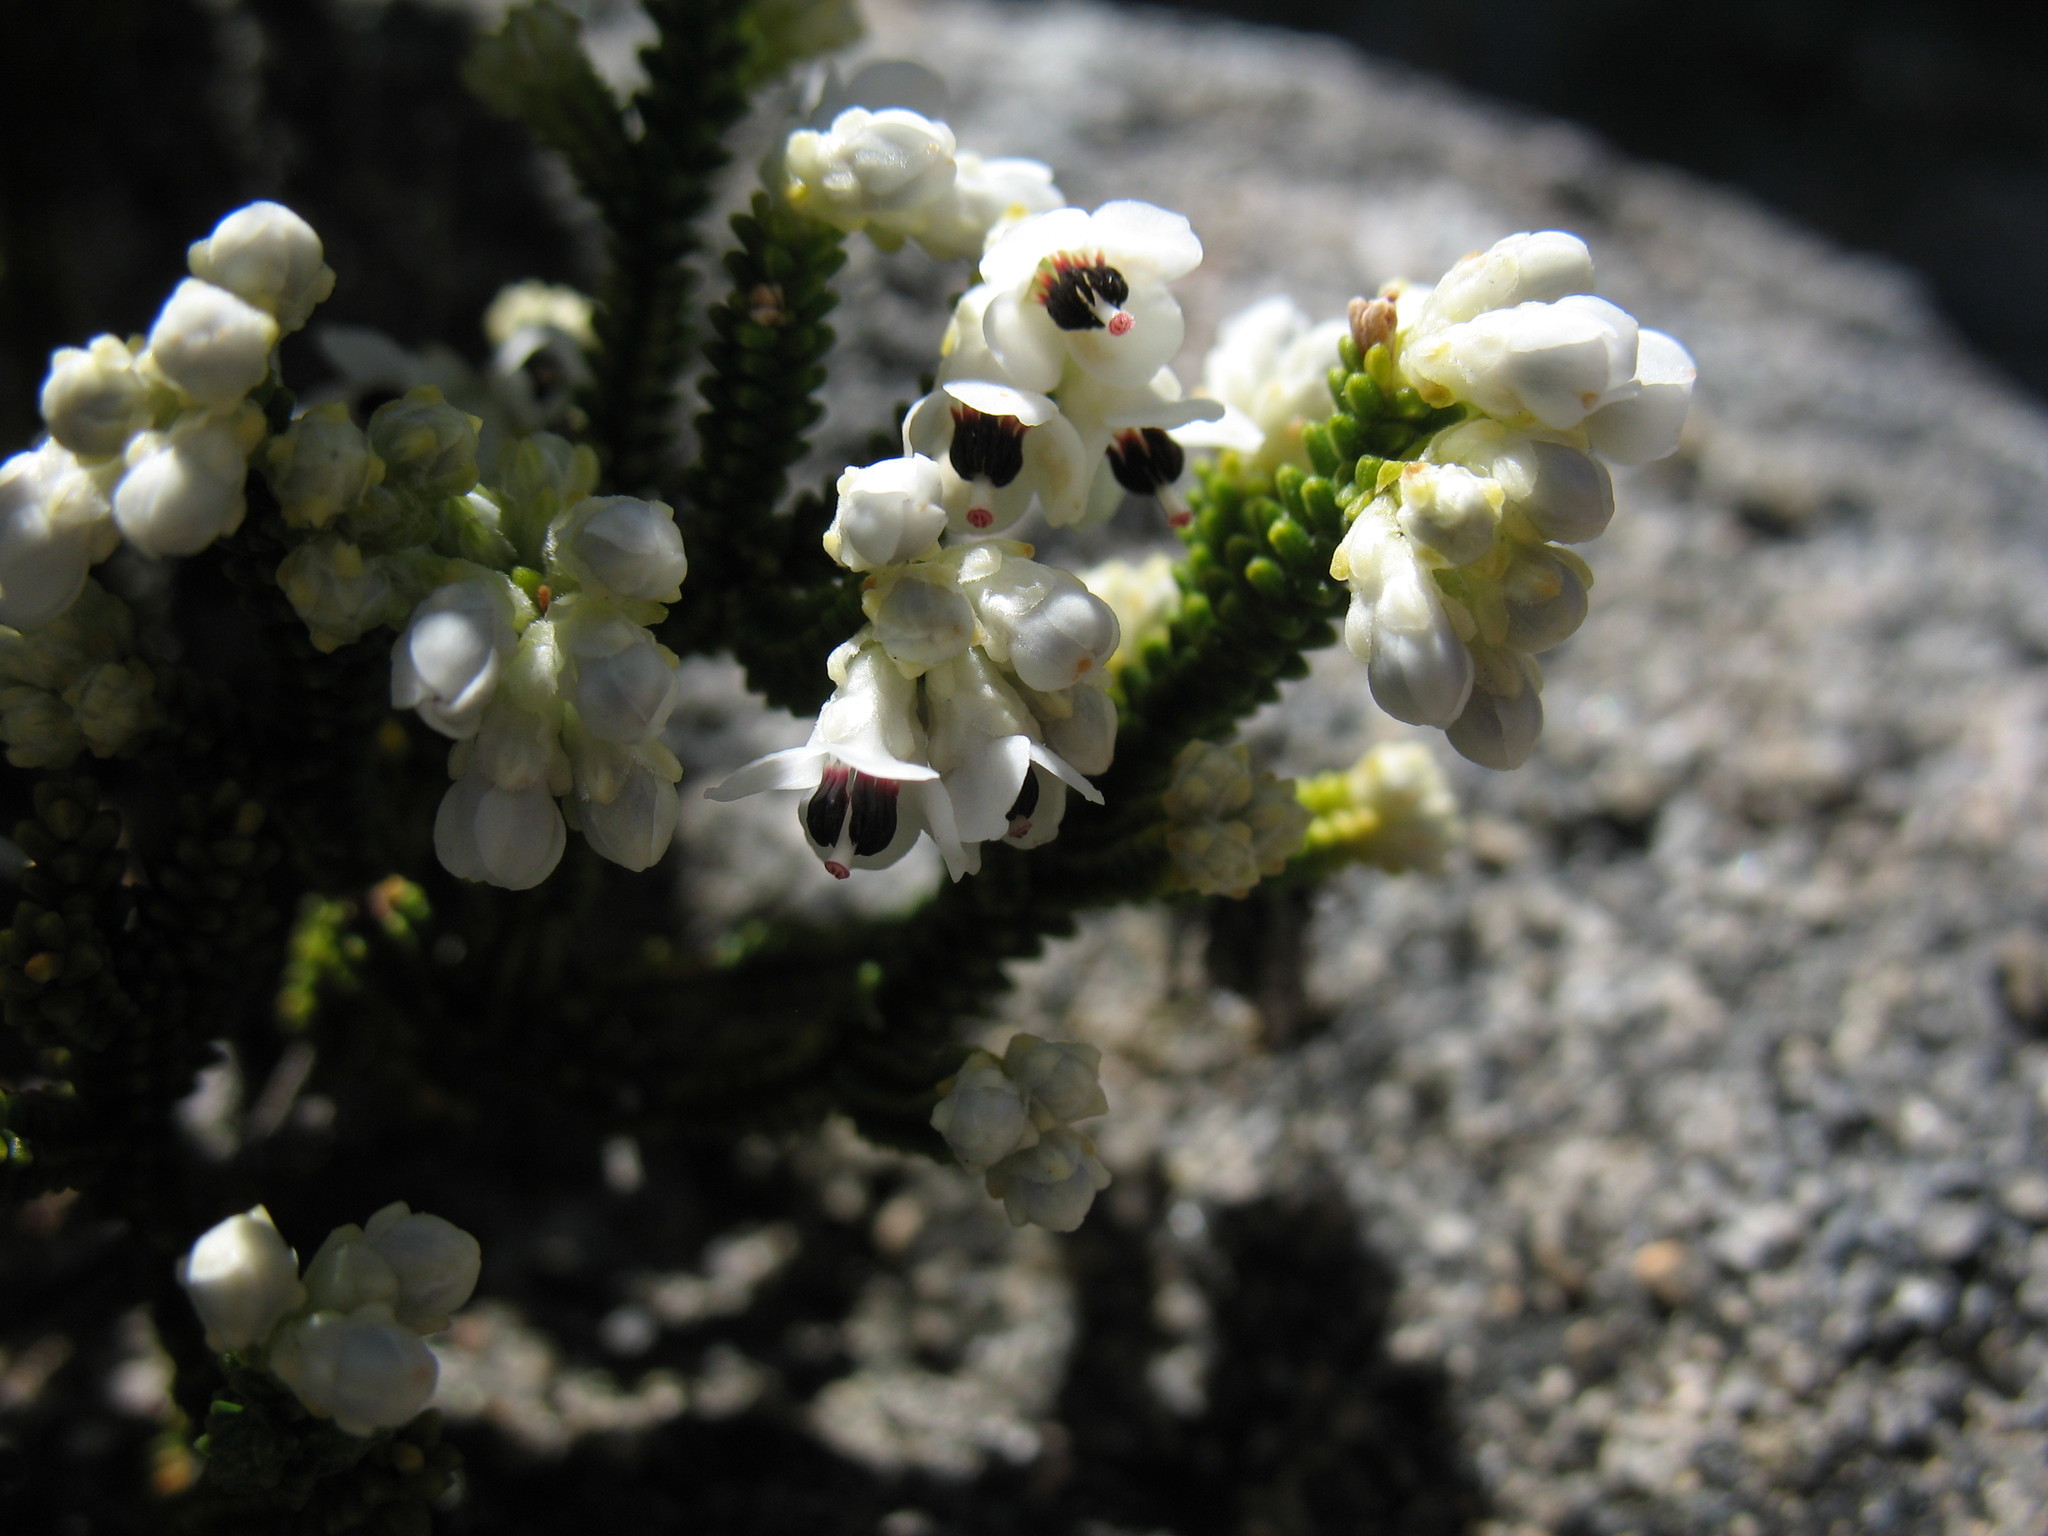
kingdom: Plantae
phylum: Tracheophyta
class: Magnoliopsida
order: Ericales
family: Ericaceae
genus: Erica
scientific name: Erica lachneifolia
